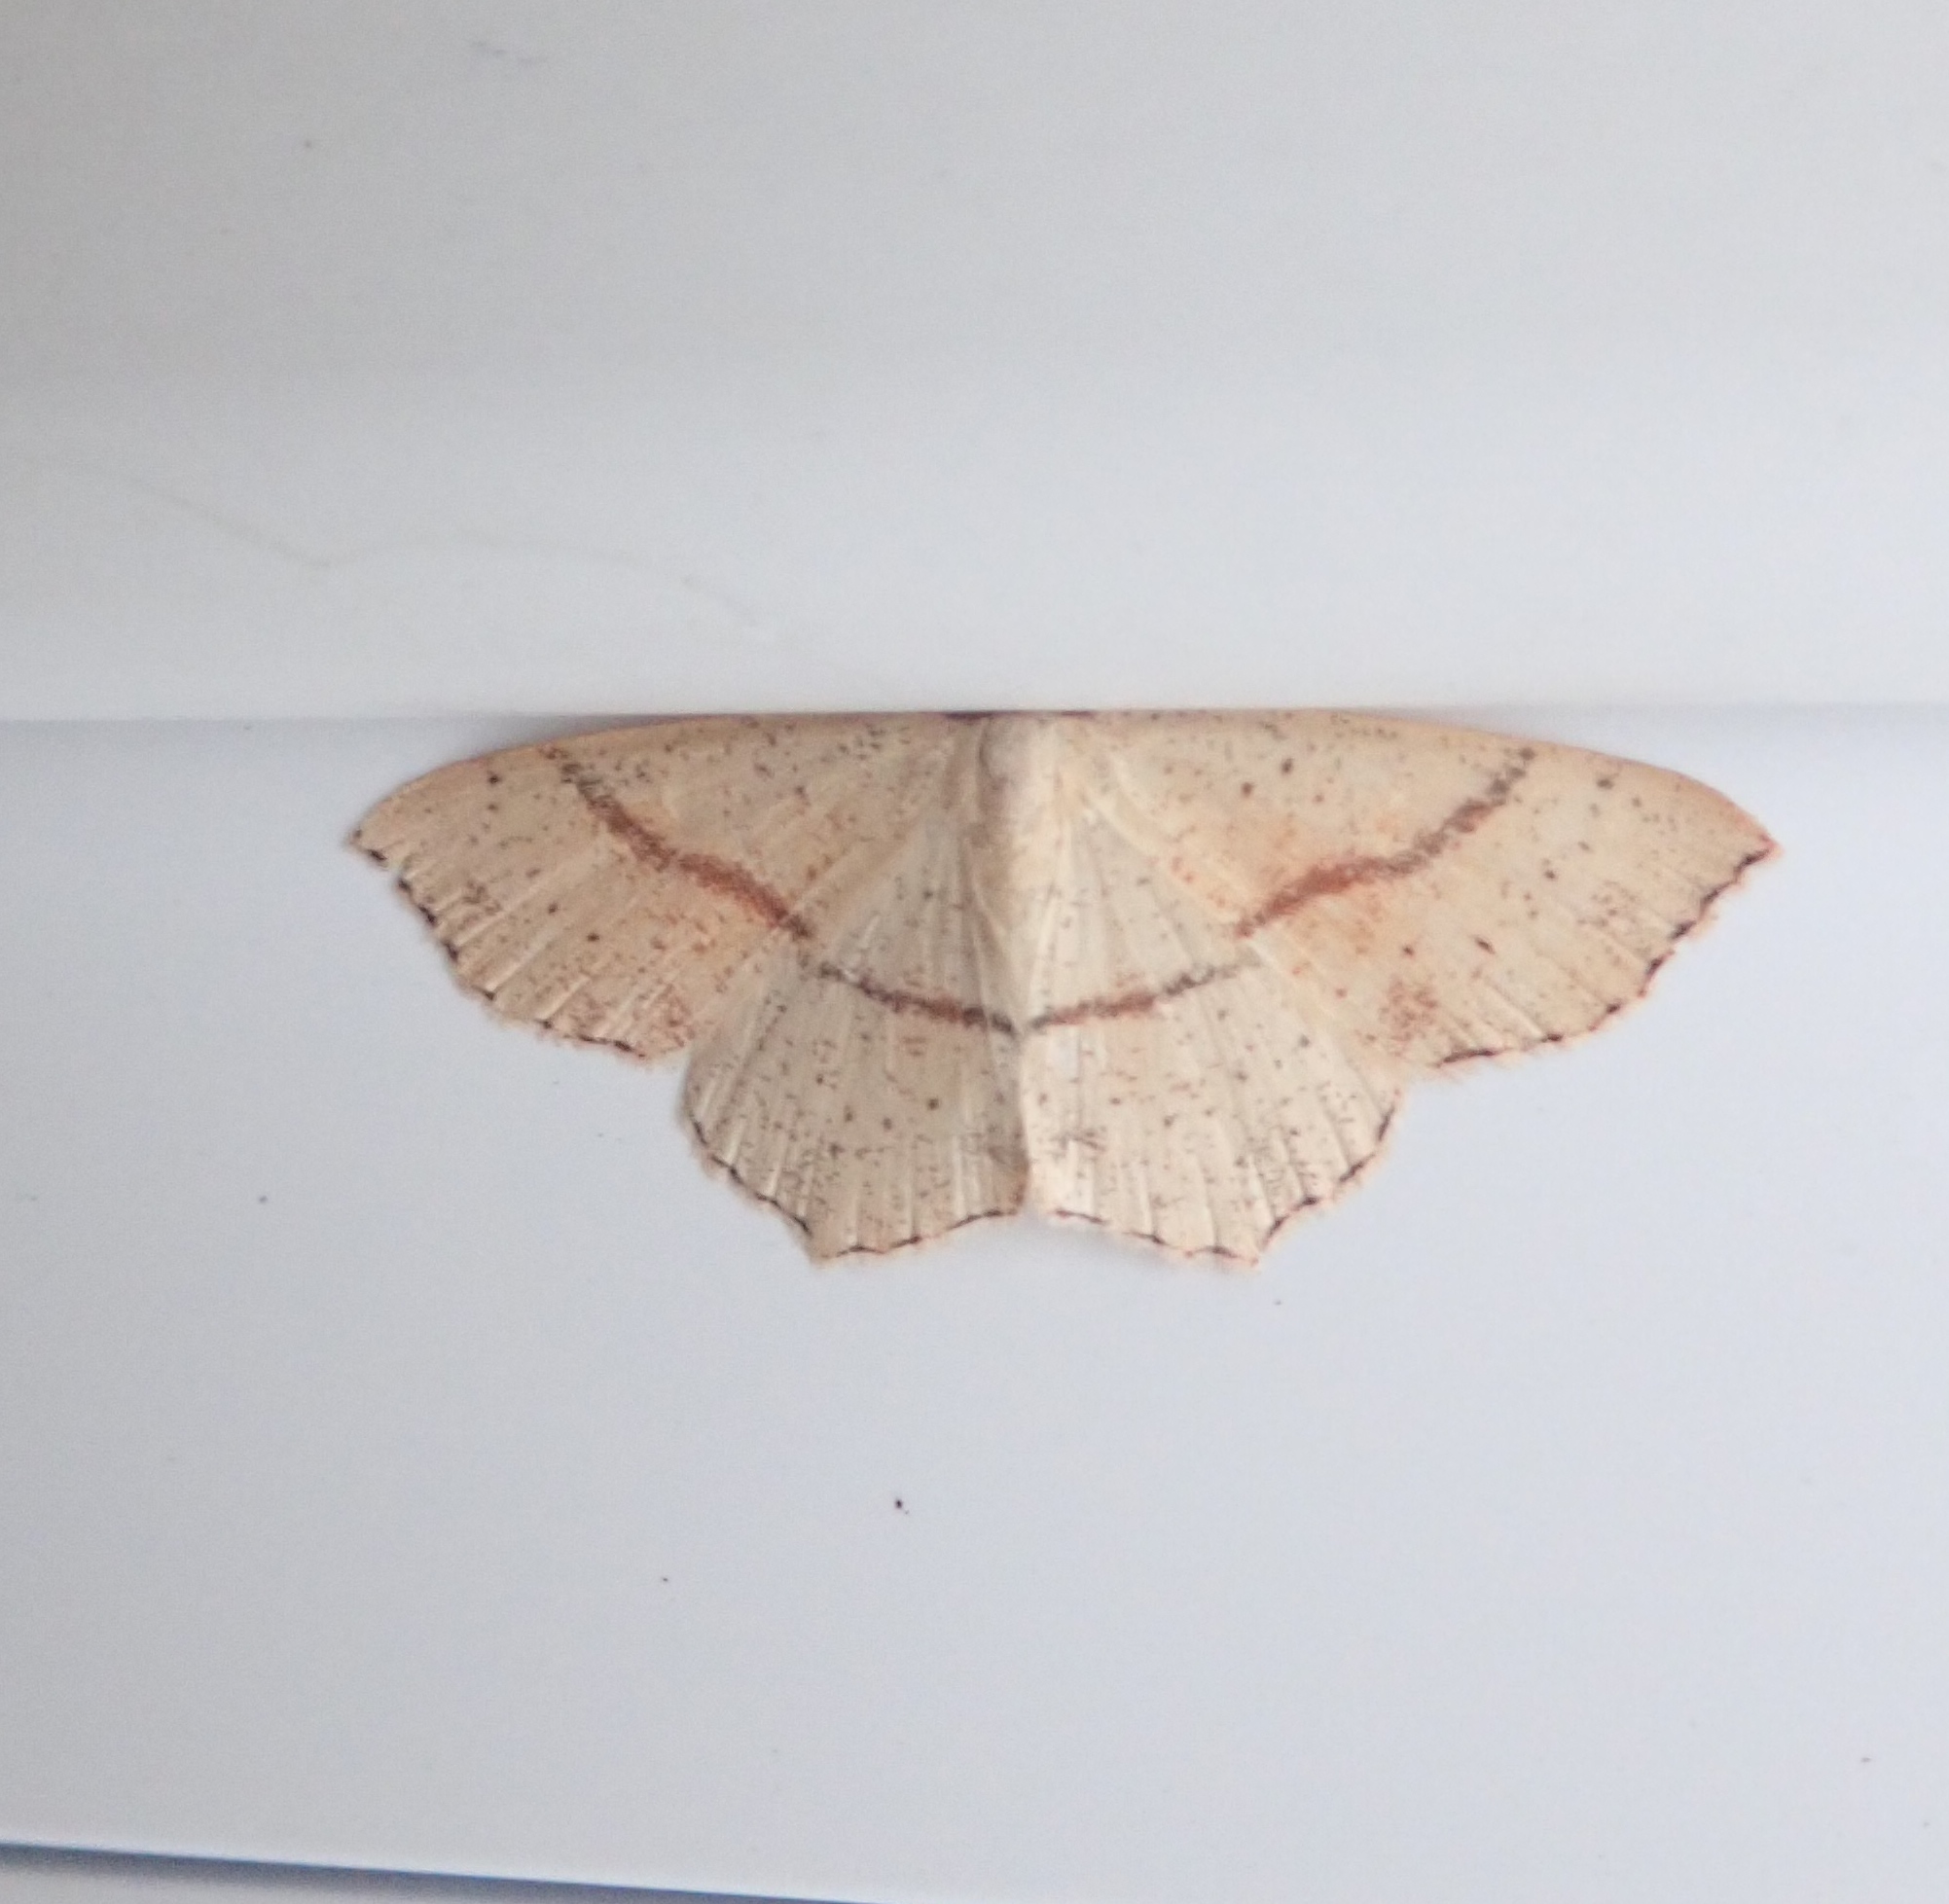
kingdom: Animalia
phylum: Arthropoda
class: Insecta
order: Lepidoptera
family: Geometridae
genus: Cyclophora
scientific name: Cyclophora punctaria
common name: Maiden's blush
